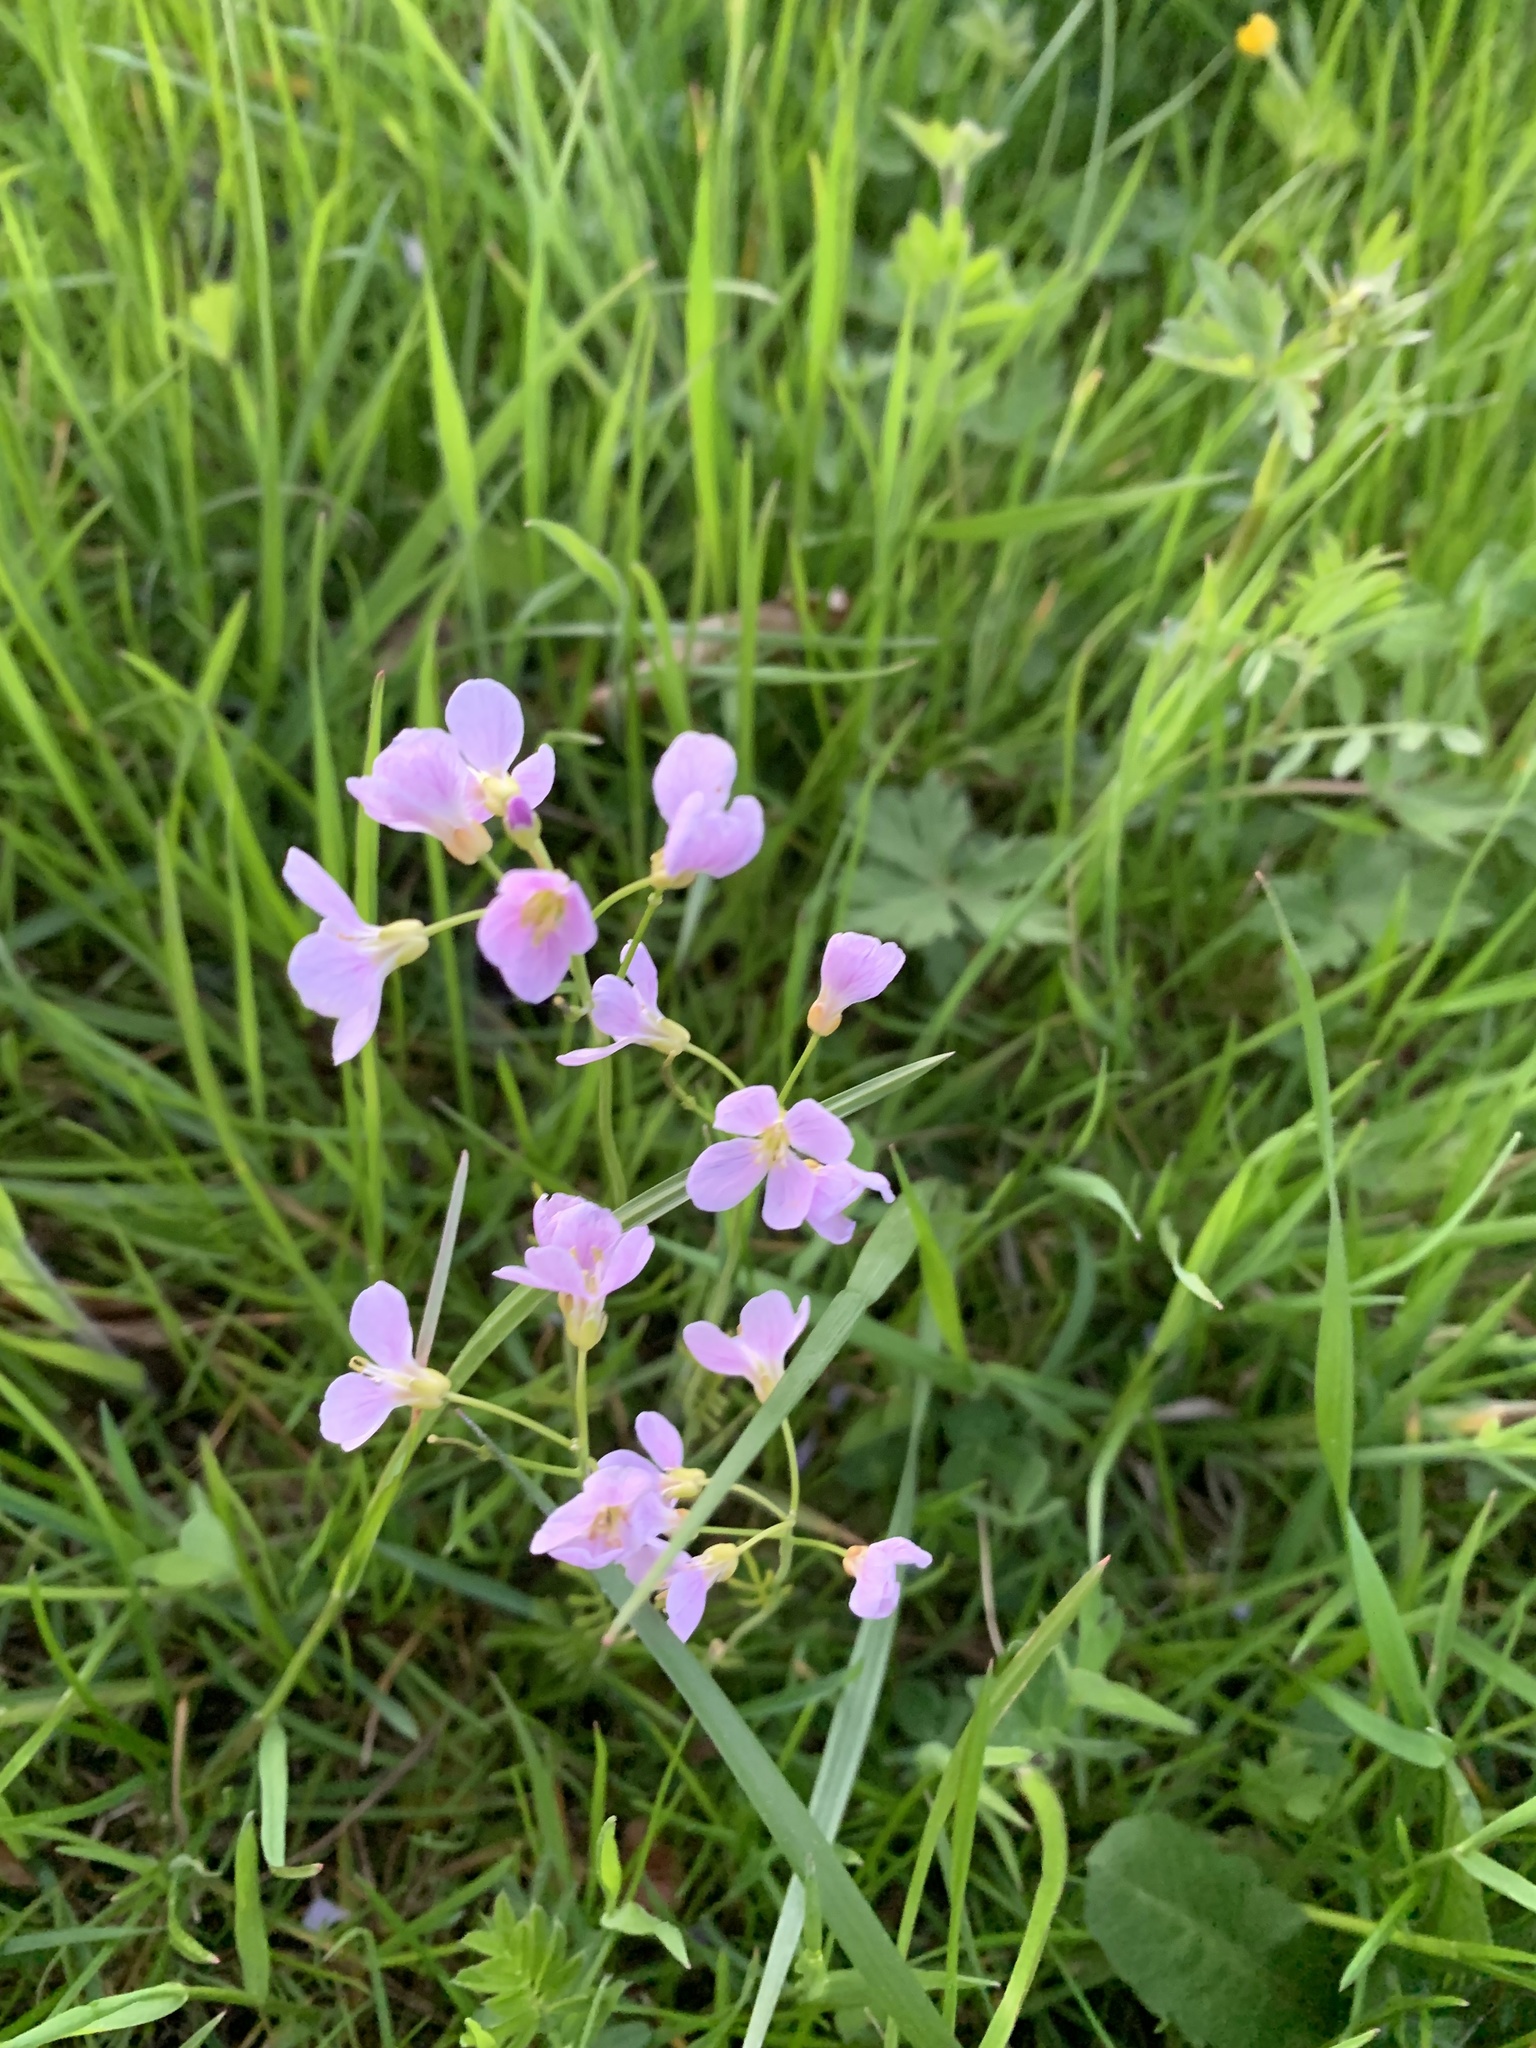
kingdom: Plantae
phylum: Tracheophyta
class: Magnoliopsida
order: Brassicales
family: Brassicaceae
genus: Cardamine
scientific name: Cardamine pratensis
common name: Cuckoo flower
